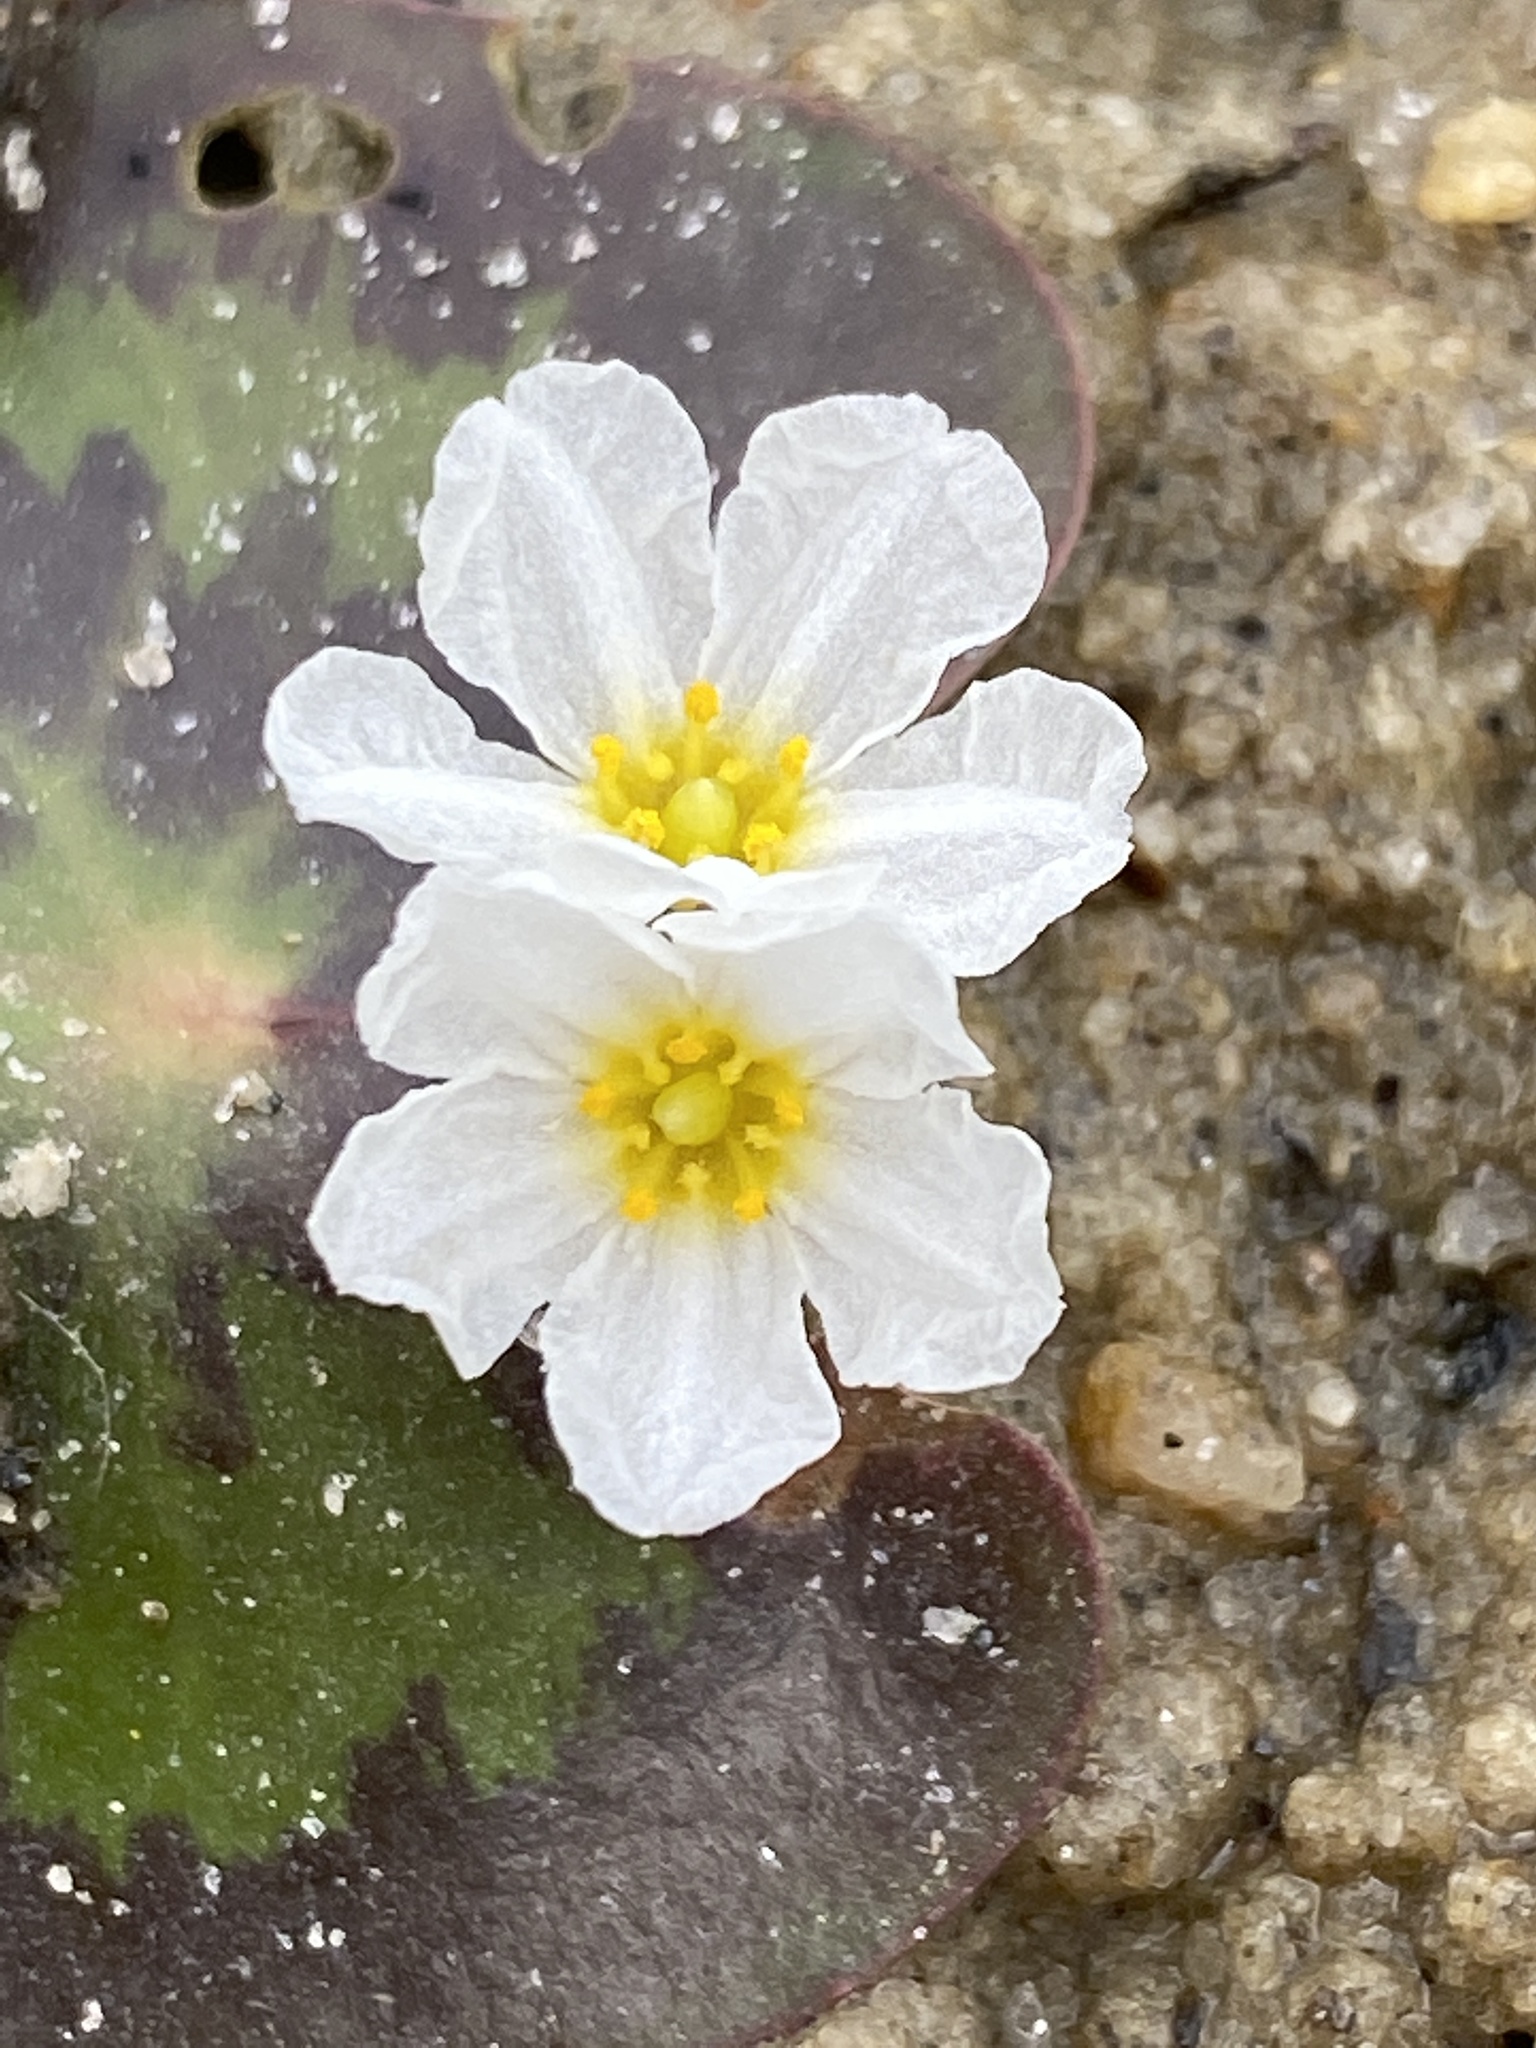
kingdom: Plantae
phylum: Tracheophyta
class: Magnoliopsida
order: Asterales
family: Menyanthaceae
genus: Nymphoides
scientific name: Nymphoides cordata
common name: Eight-angled floatingheart
